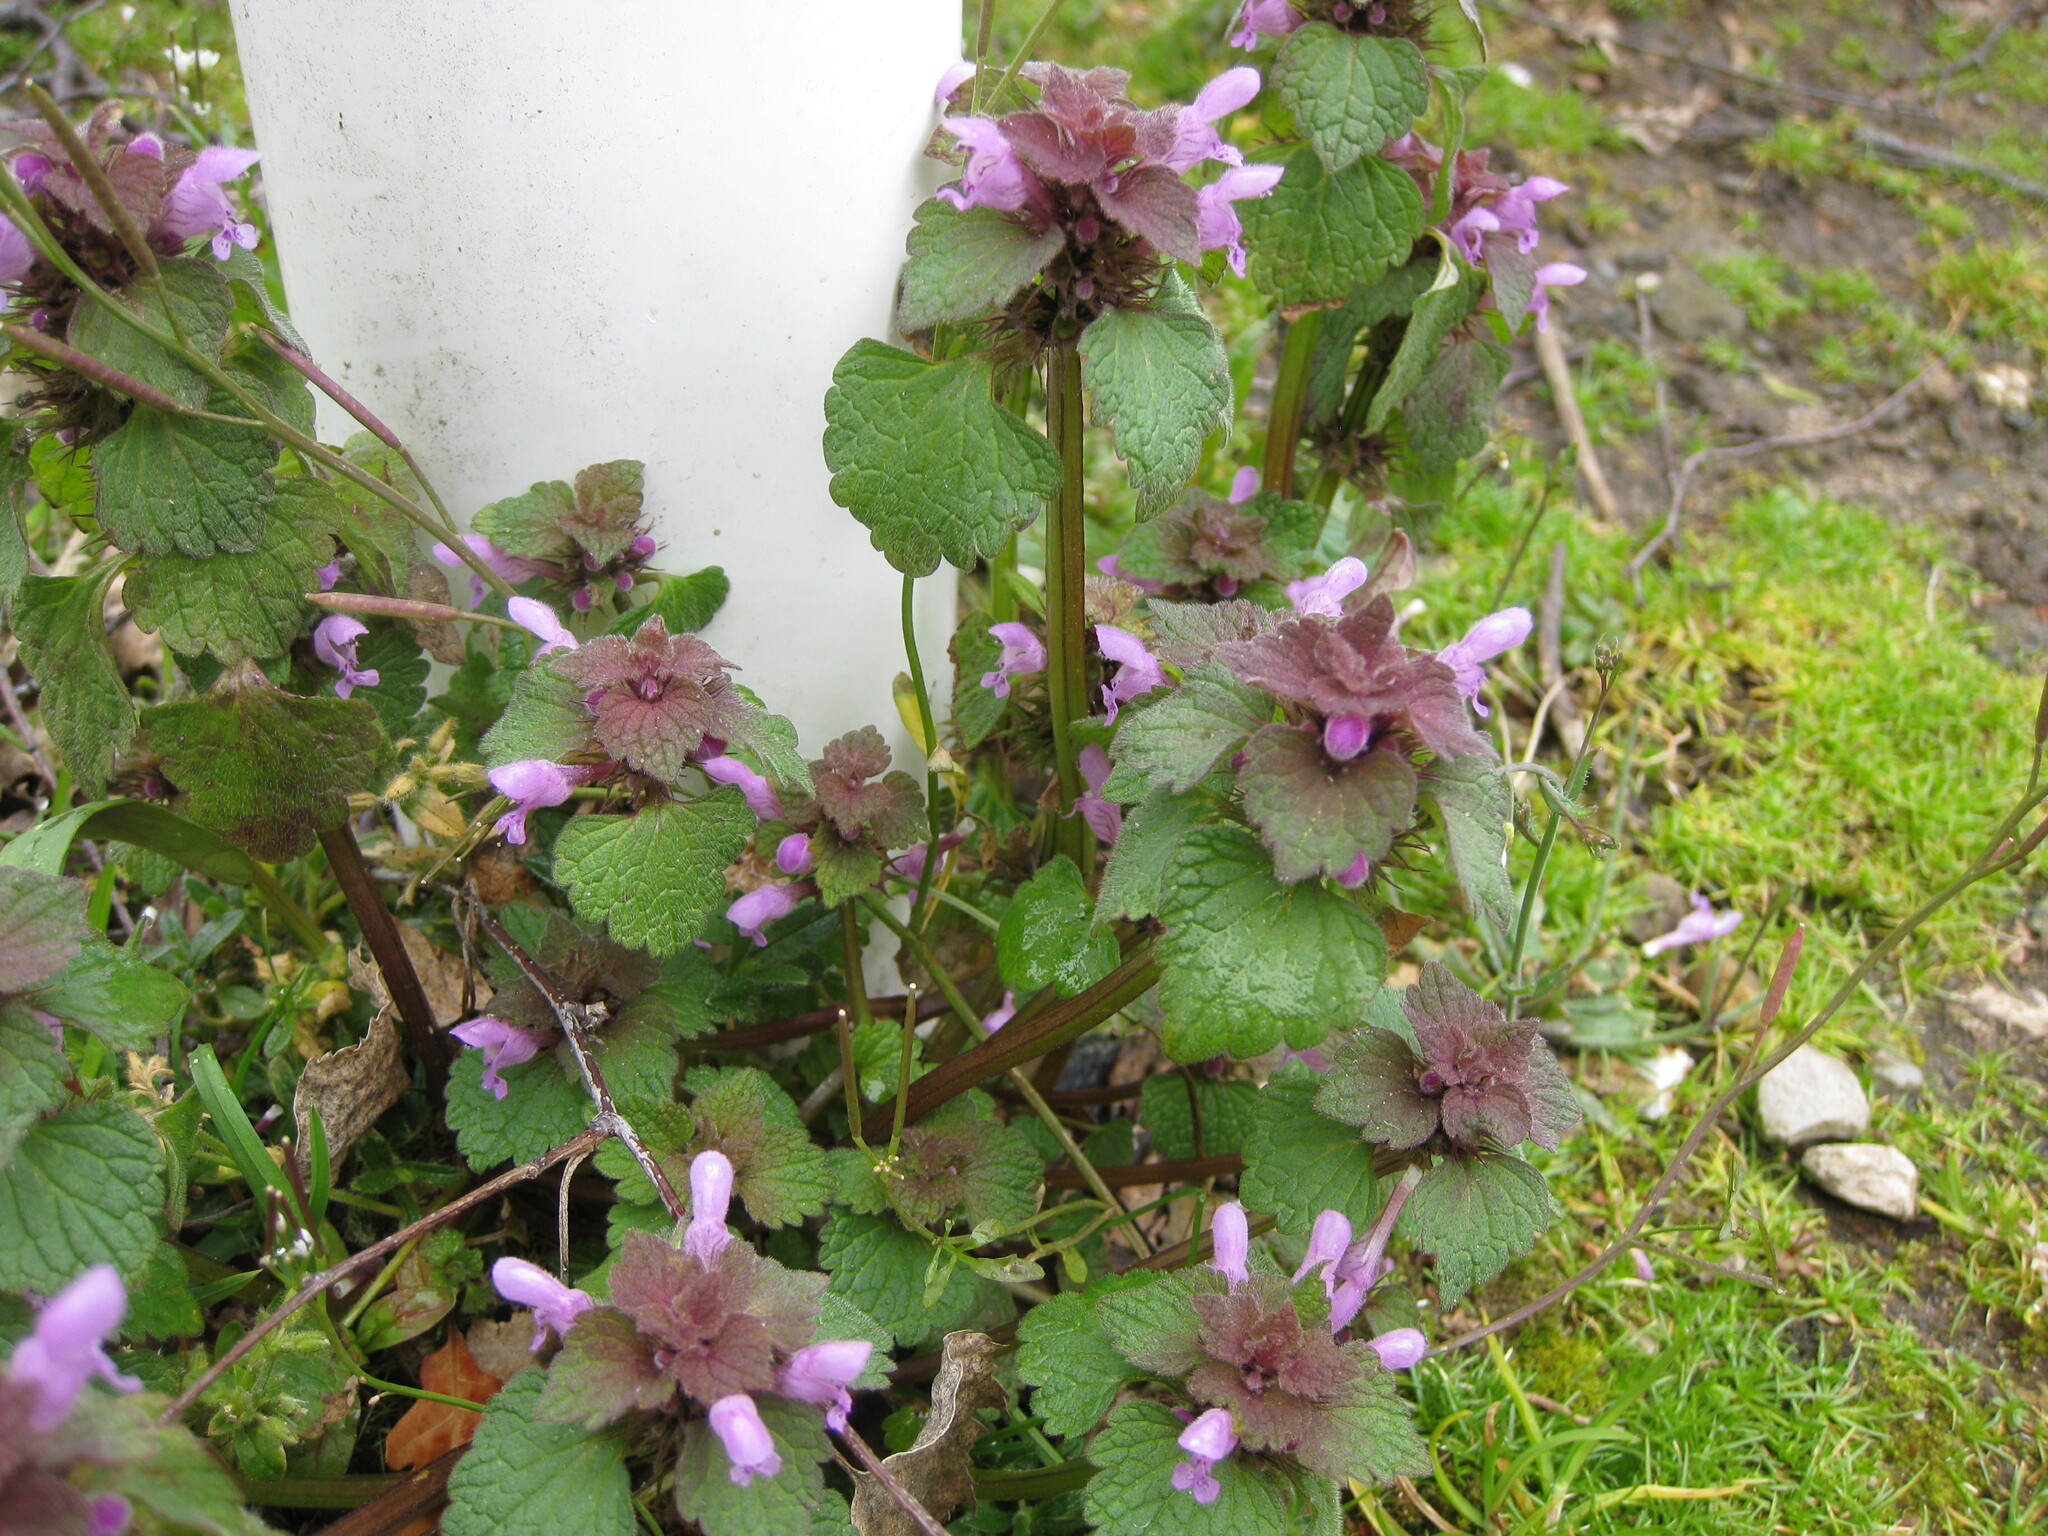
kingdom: Plantae
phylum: Tracheophyta
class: Magnoliopsida
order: Lamiales
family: Lamiaceae
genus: Lamium
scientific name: Lamium purpureum
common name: Red dead-nettle
